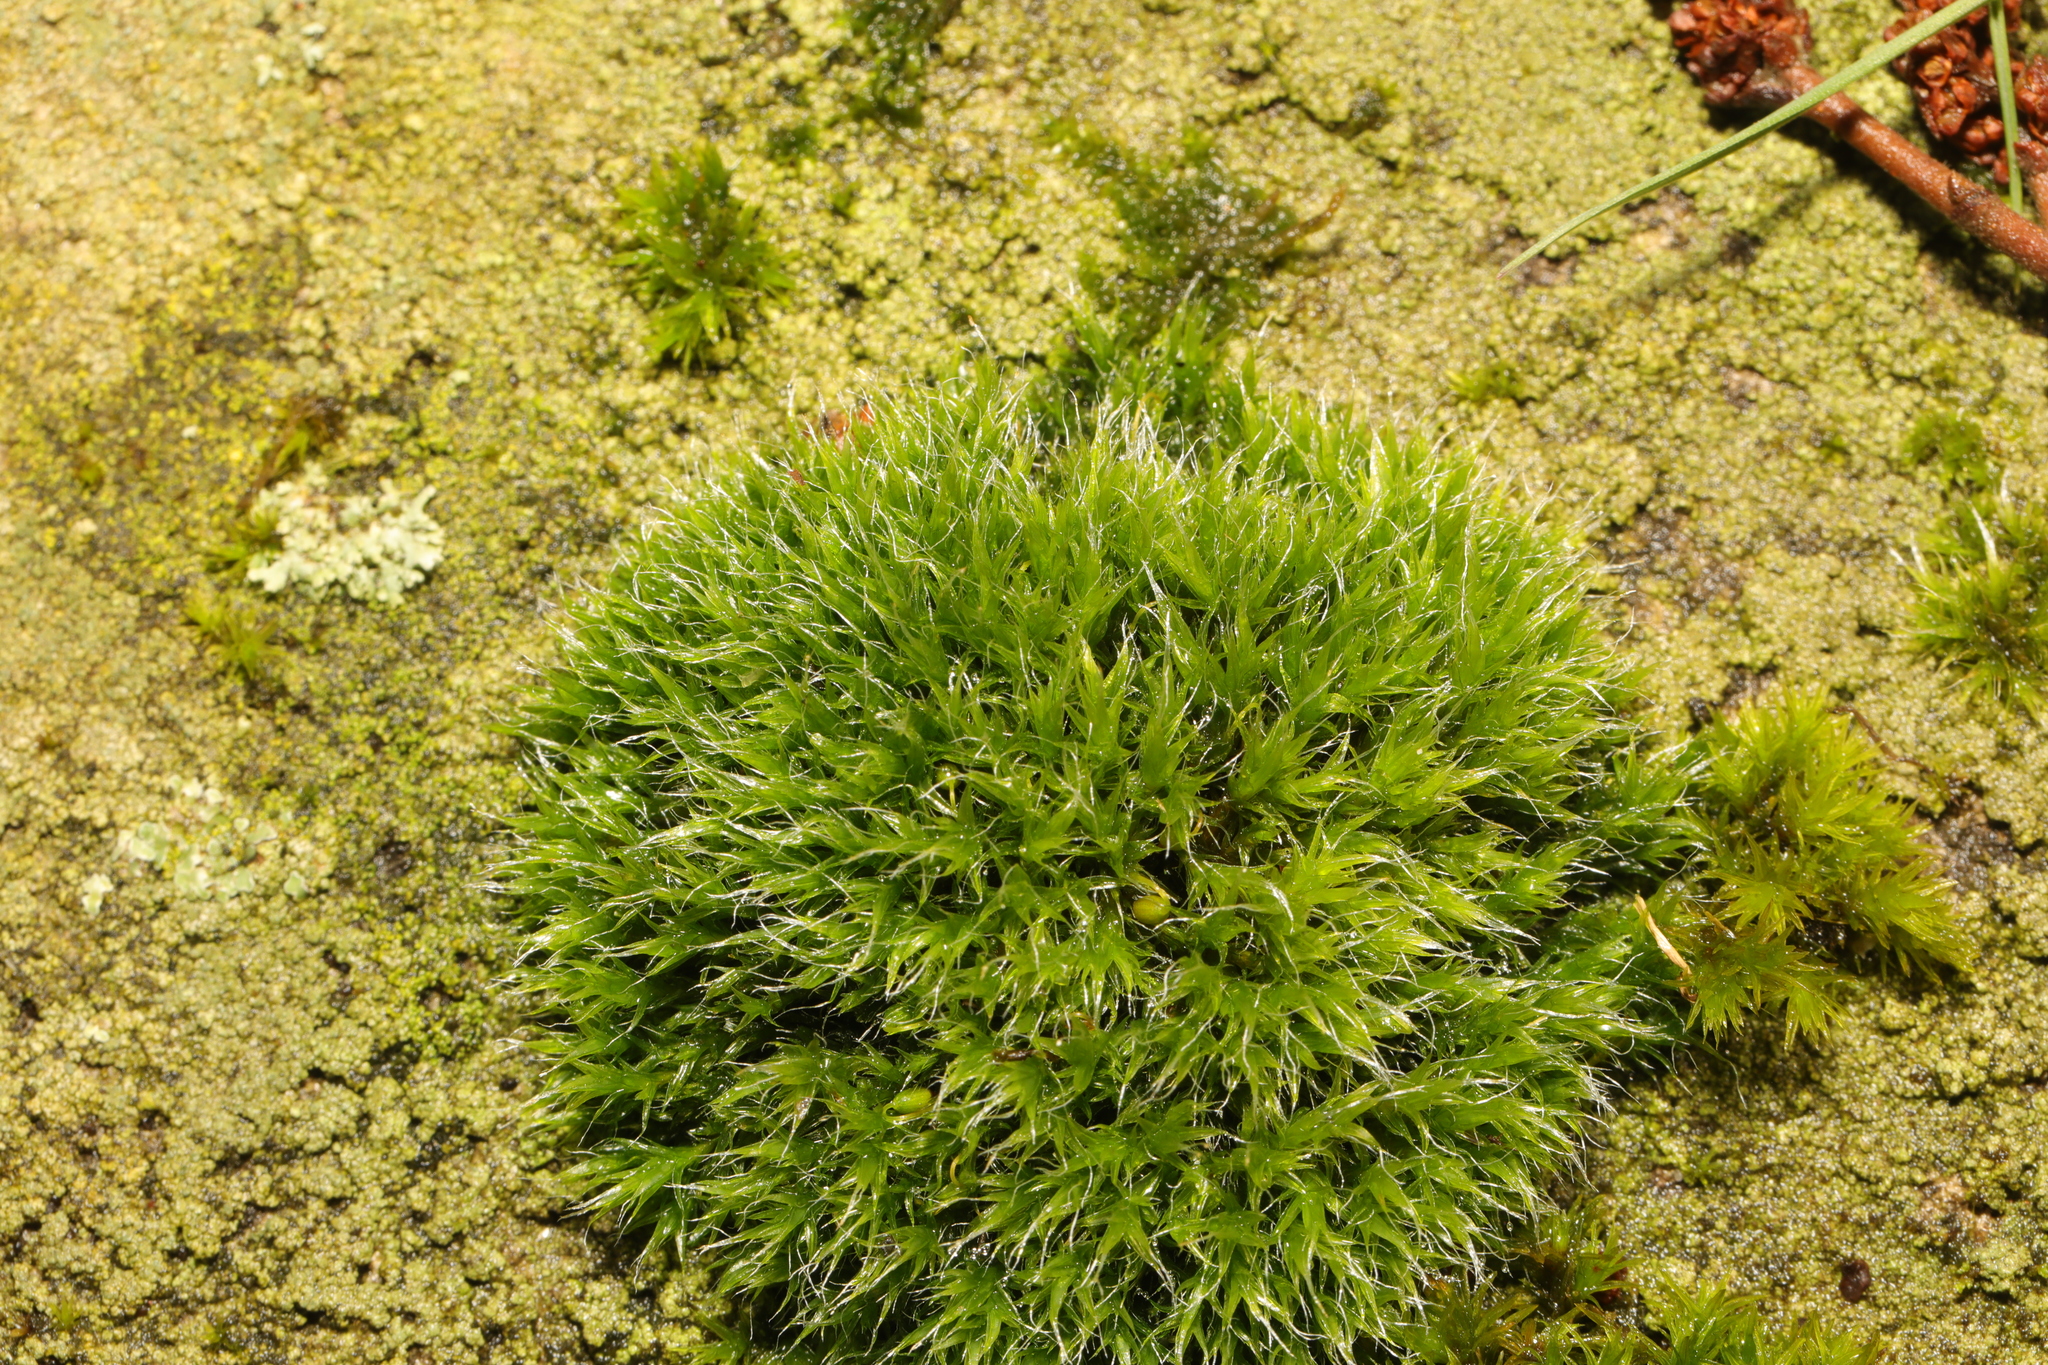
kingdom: Plantae
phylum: Bryophyta
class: Bryopsida
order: Grimmiales
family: Grimmiaceae
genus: Grimmia
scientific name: Grimmia pulvinata
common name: Grey-cushioned grimmia
